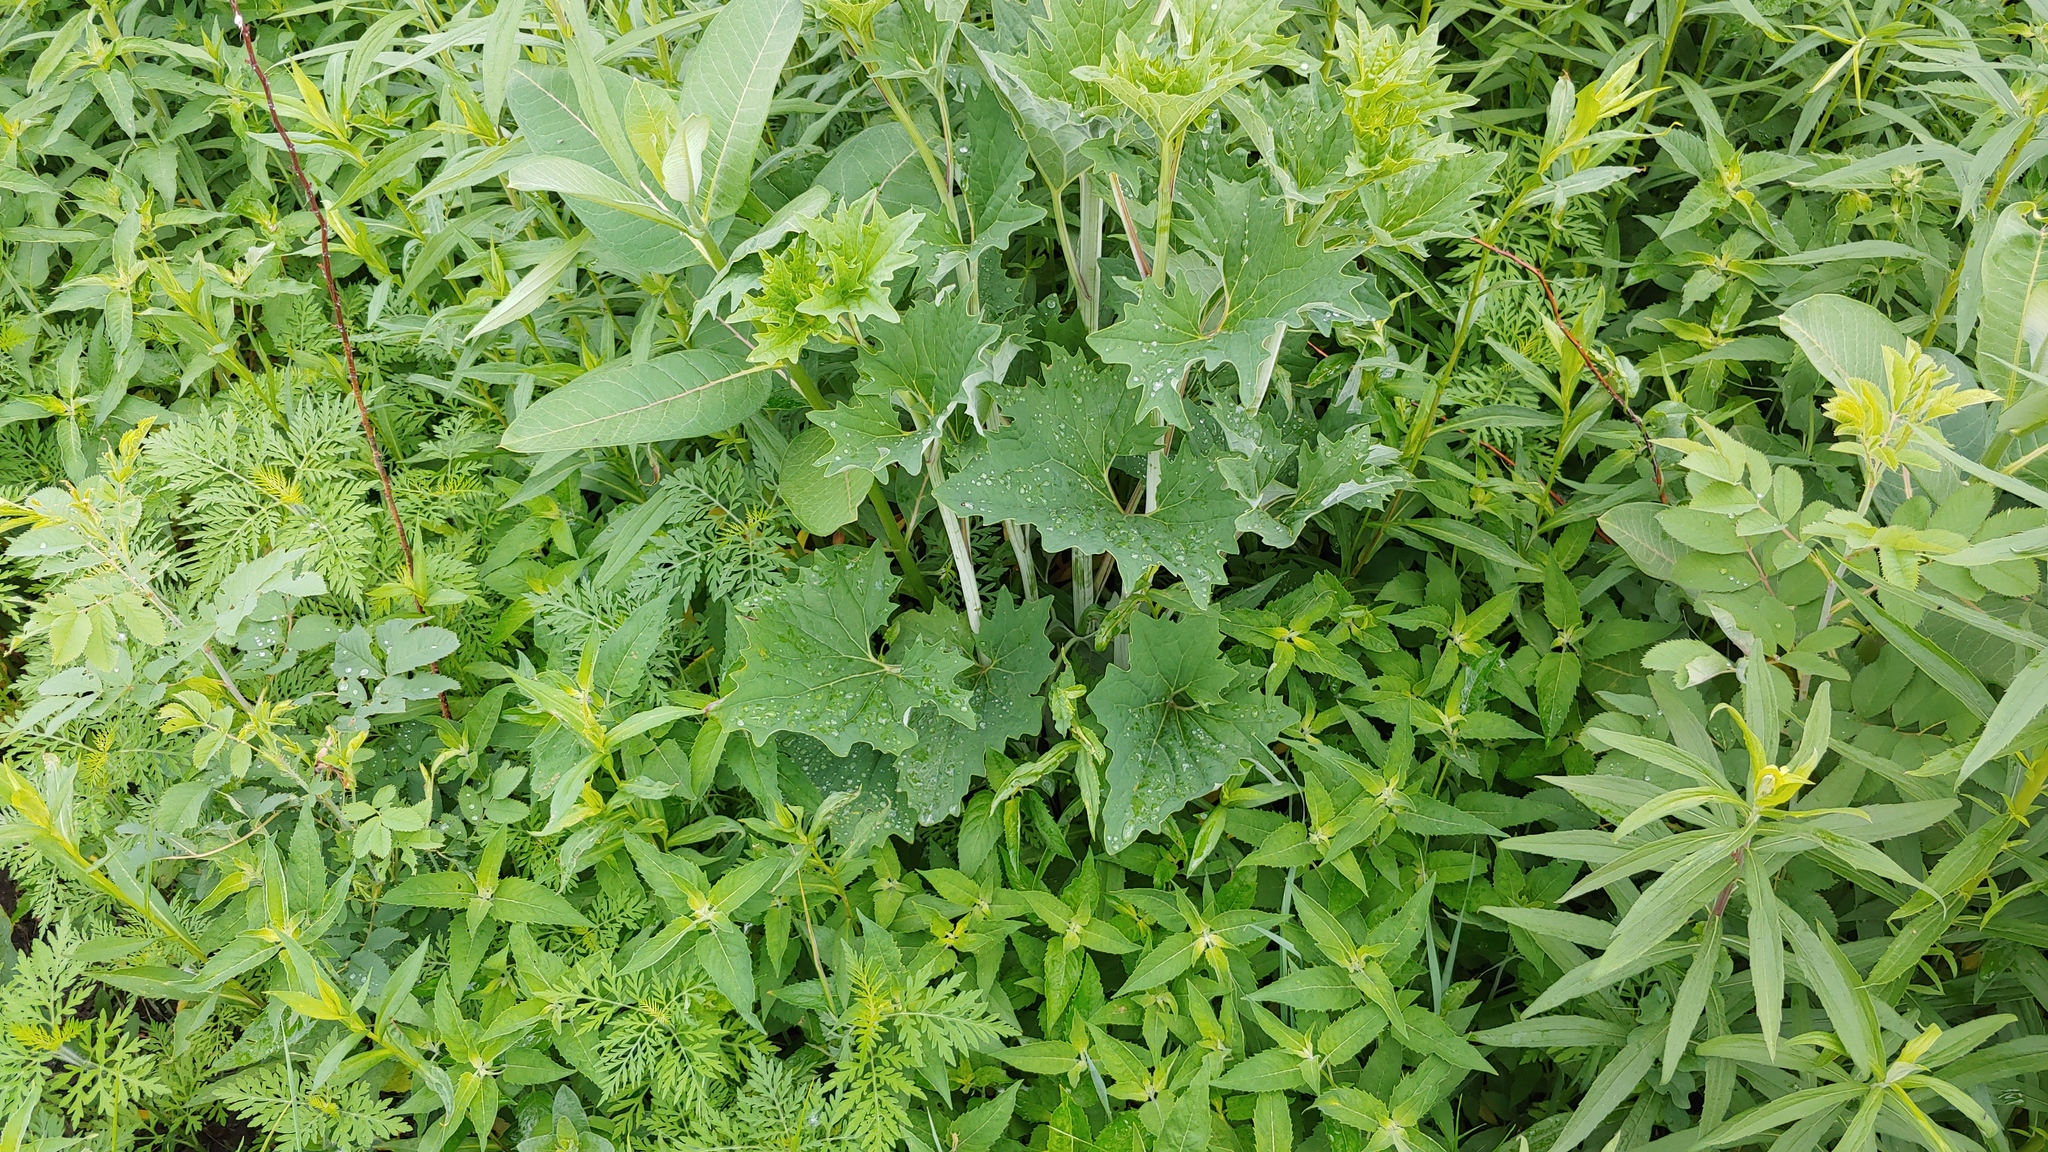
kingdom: Plantae
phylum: Tracheophyta
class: Magnoliopsida
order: Asterales
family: Asteraceae
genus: Arnoglossum
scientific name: Arnoglossum atriplicifolium
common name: Pale indian-plantain
